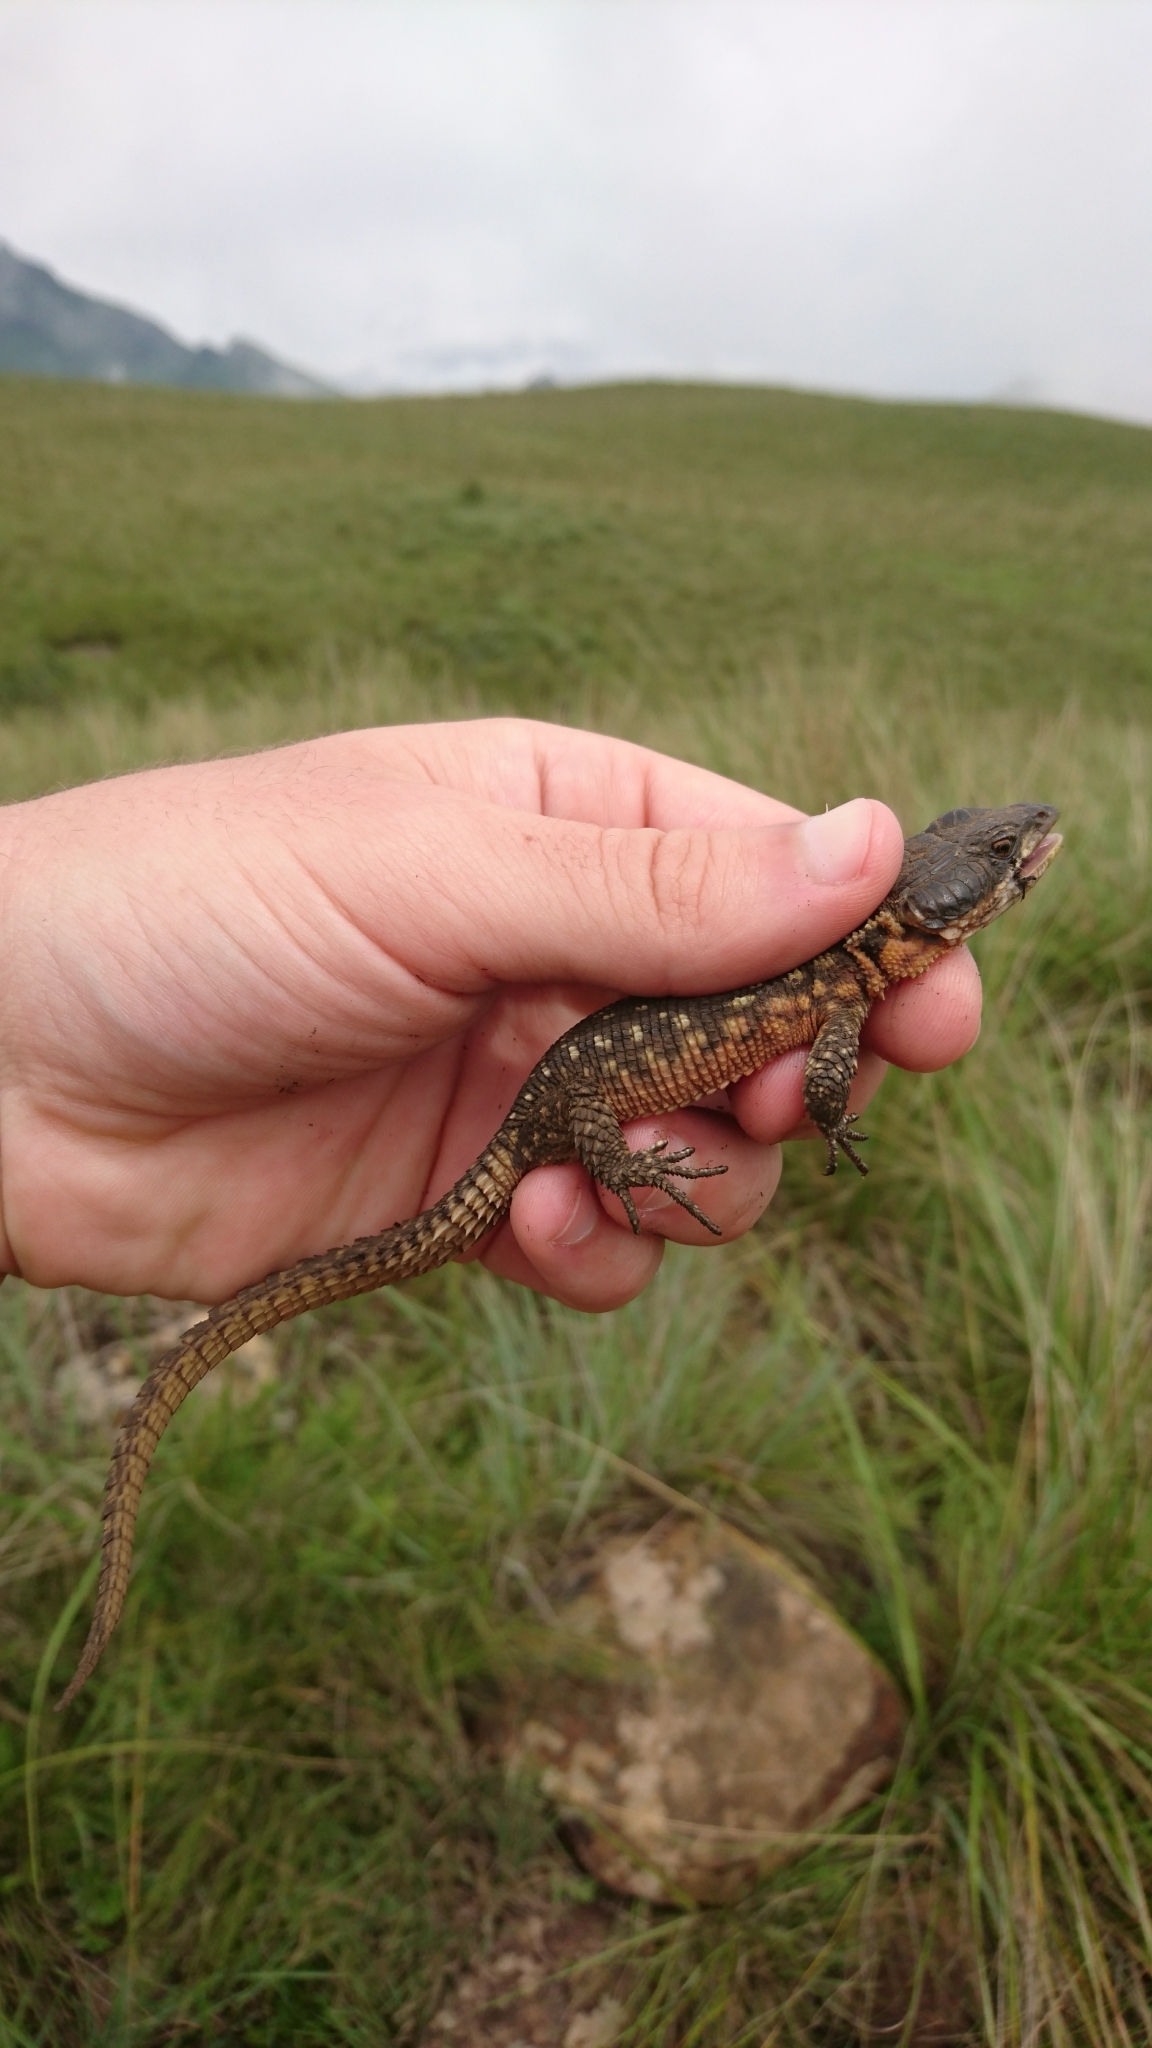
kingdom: Animalia
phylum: Chordata
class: Squamata
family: Cordylidae
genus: Pseudocordylus
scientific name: Pseudocordylus spinosus
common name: Spiny crag lizard
